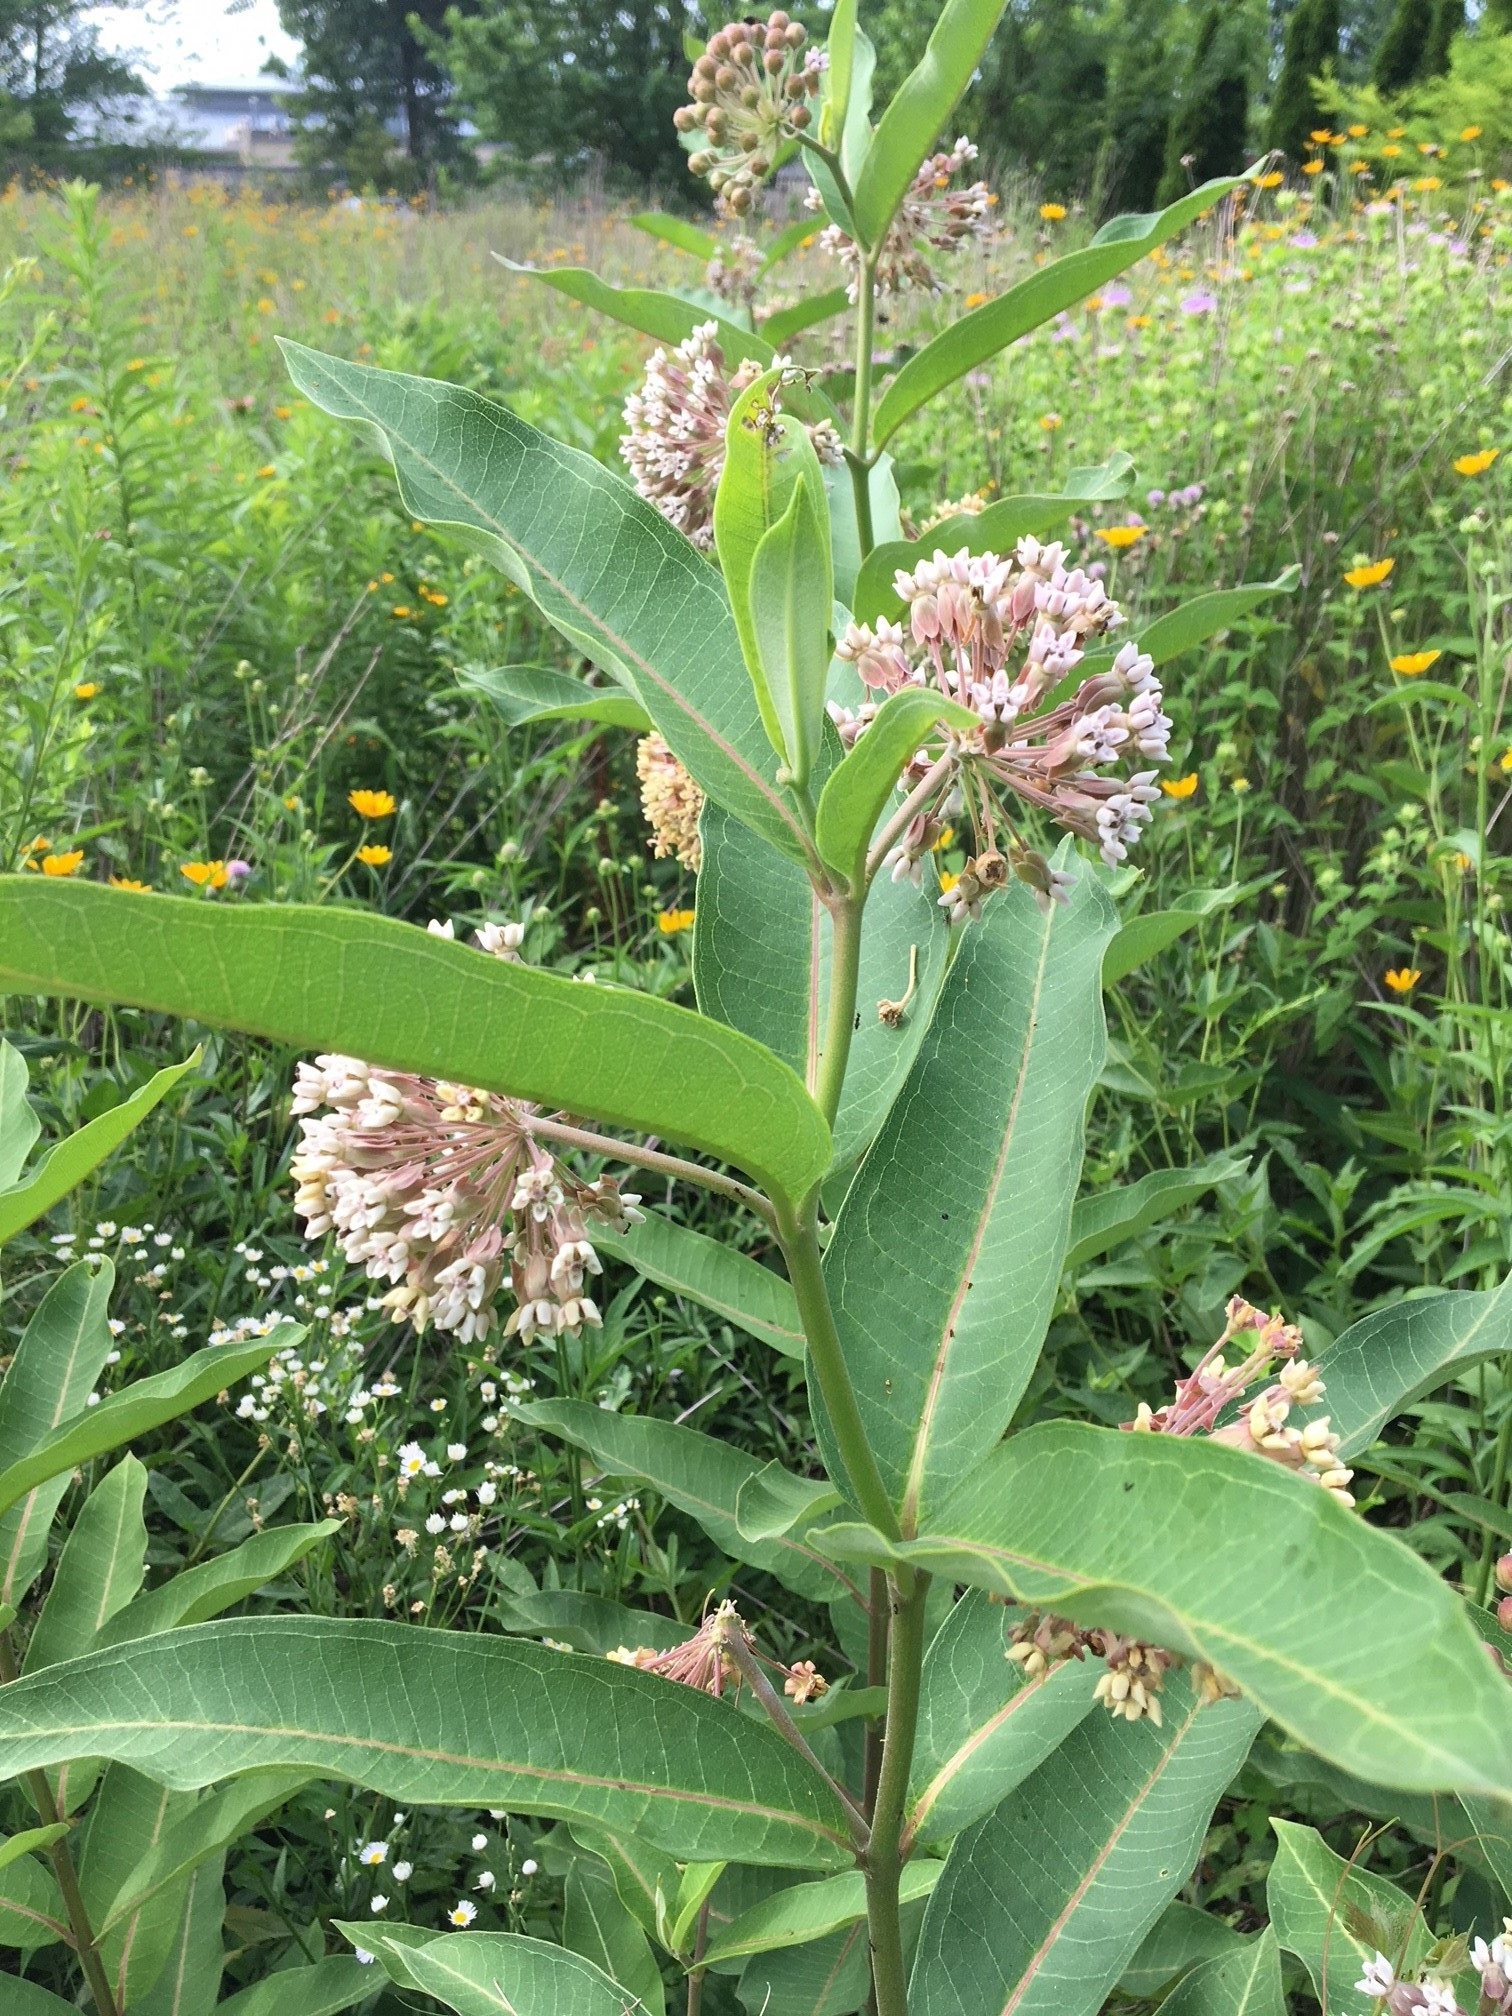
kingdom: Plantae
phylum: Tracheophyta
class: Magnoliopsida
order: Gentianales
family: Apocynaceae
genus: Asclepias
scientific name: Asclepias syriaca
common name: Common milkweed
